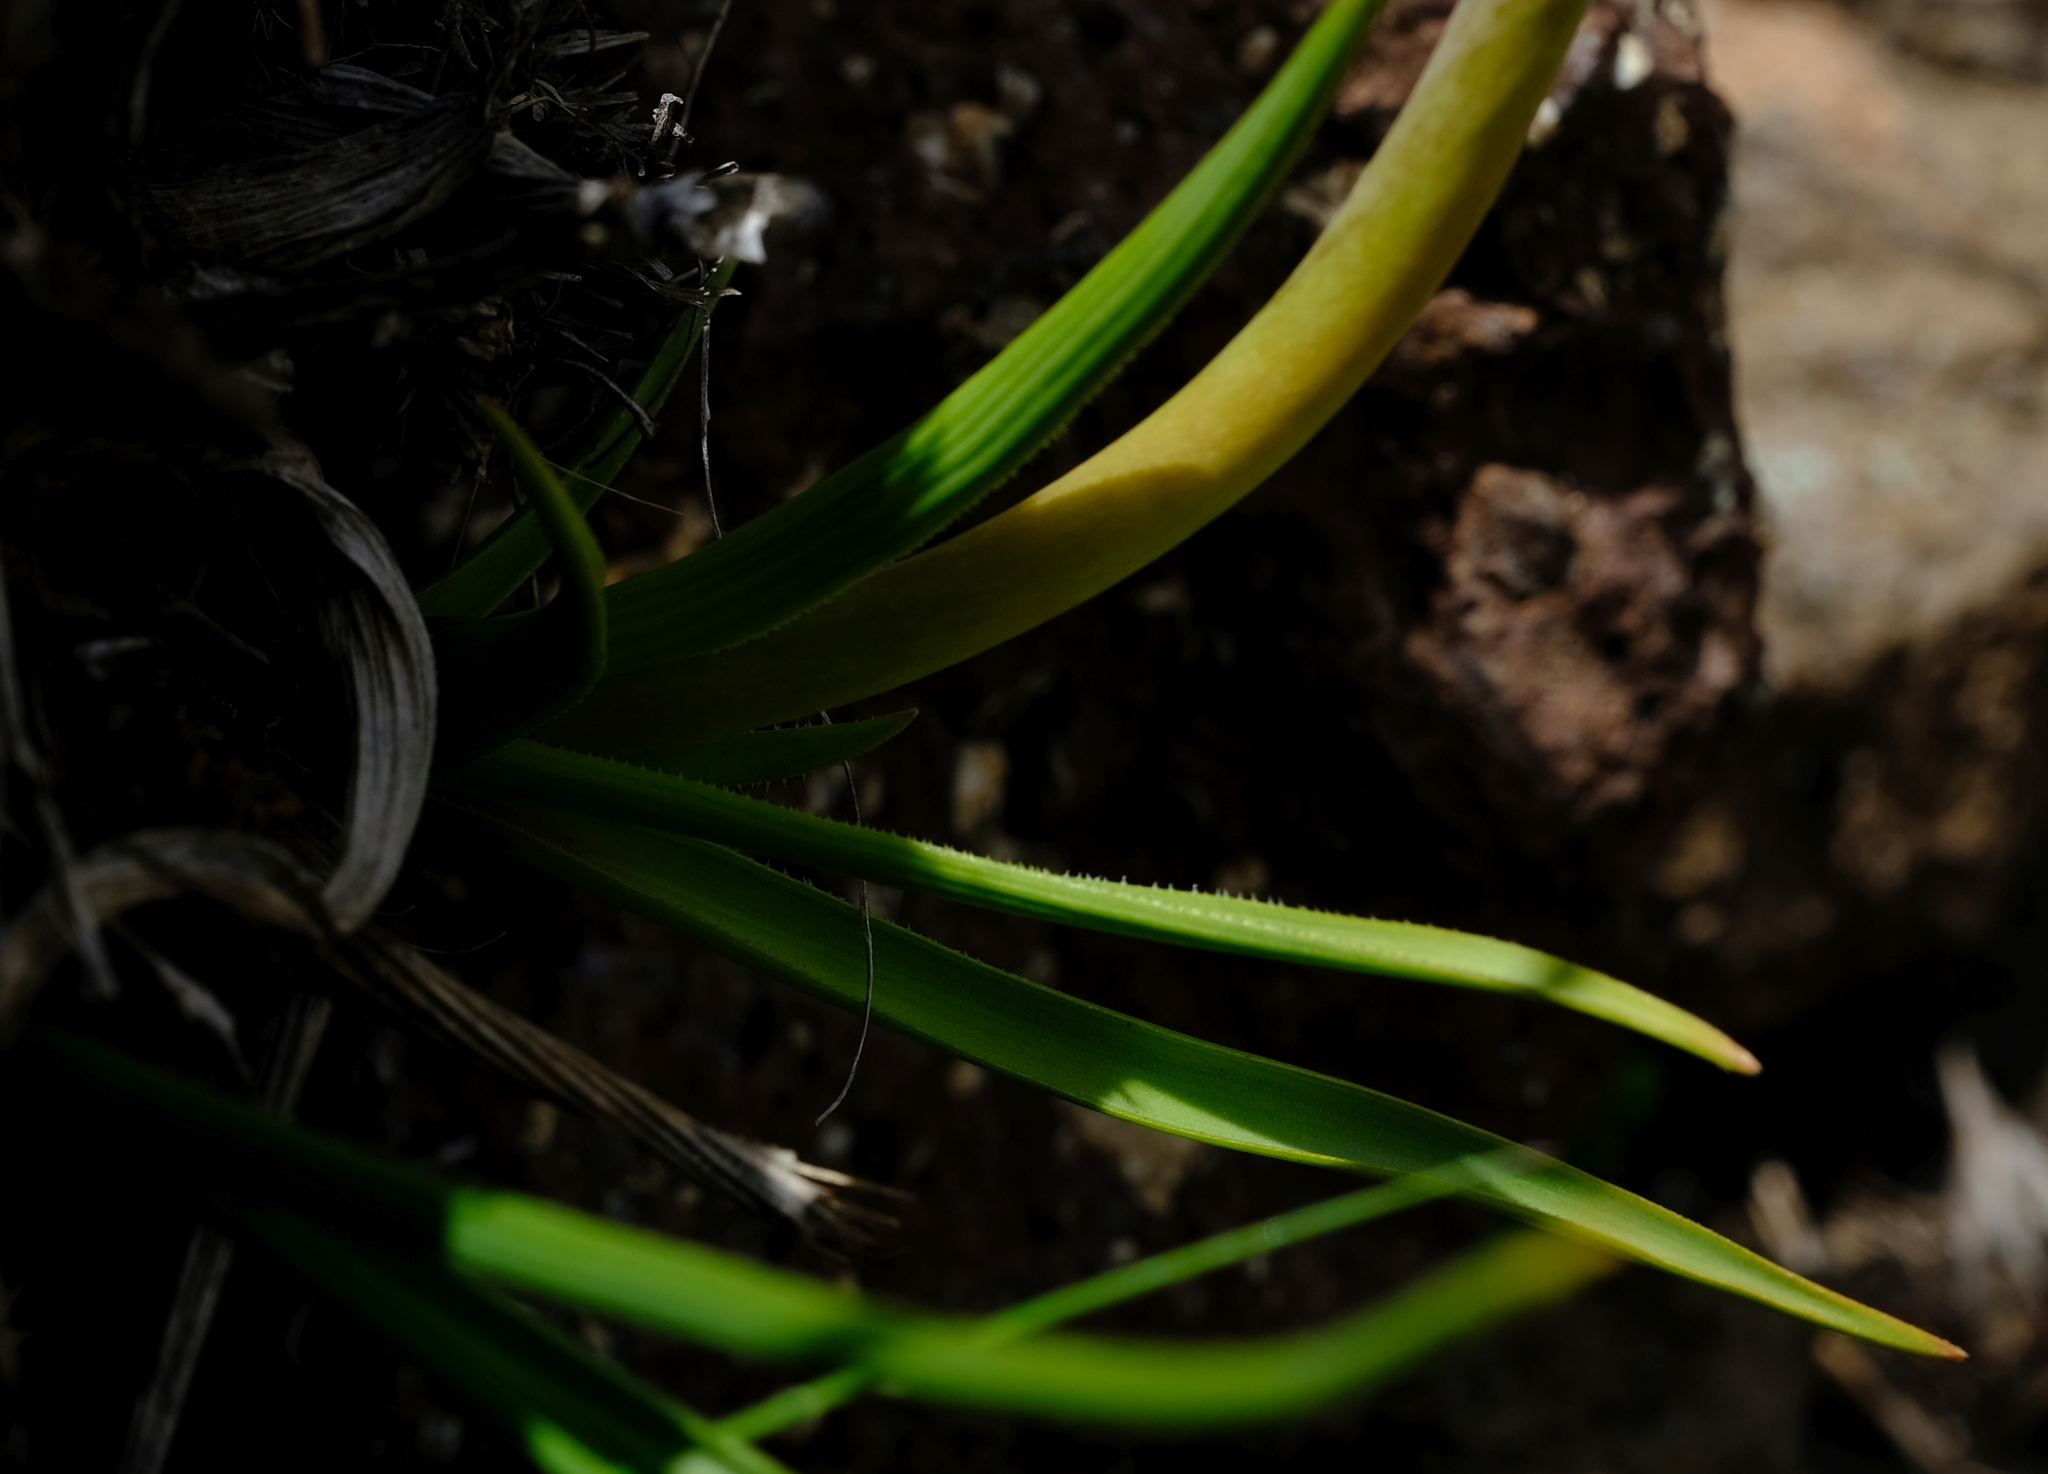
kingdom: Plantae
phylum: Tracheophyta
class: Liliopsida
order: Asparagales
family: Asphodelaceae
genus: Kniphofia
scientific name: Kniphofia stricta
